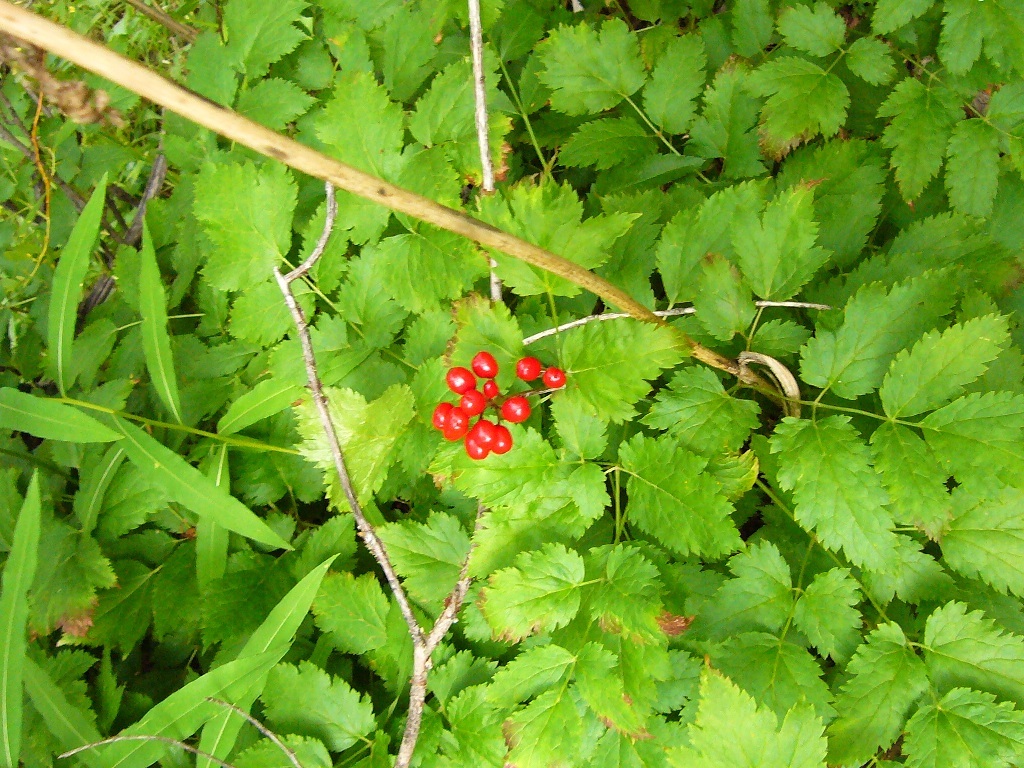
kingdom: Plantae
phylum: Tracheophyta
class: Magnoliopsida
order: Ranunculales
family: Ranunculaceae
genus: Actaea
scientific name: Actaea rubra
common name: Red baneberry
